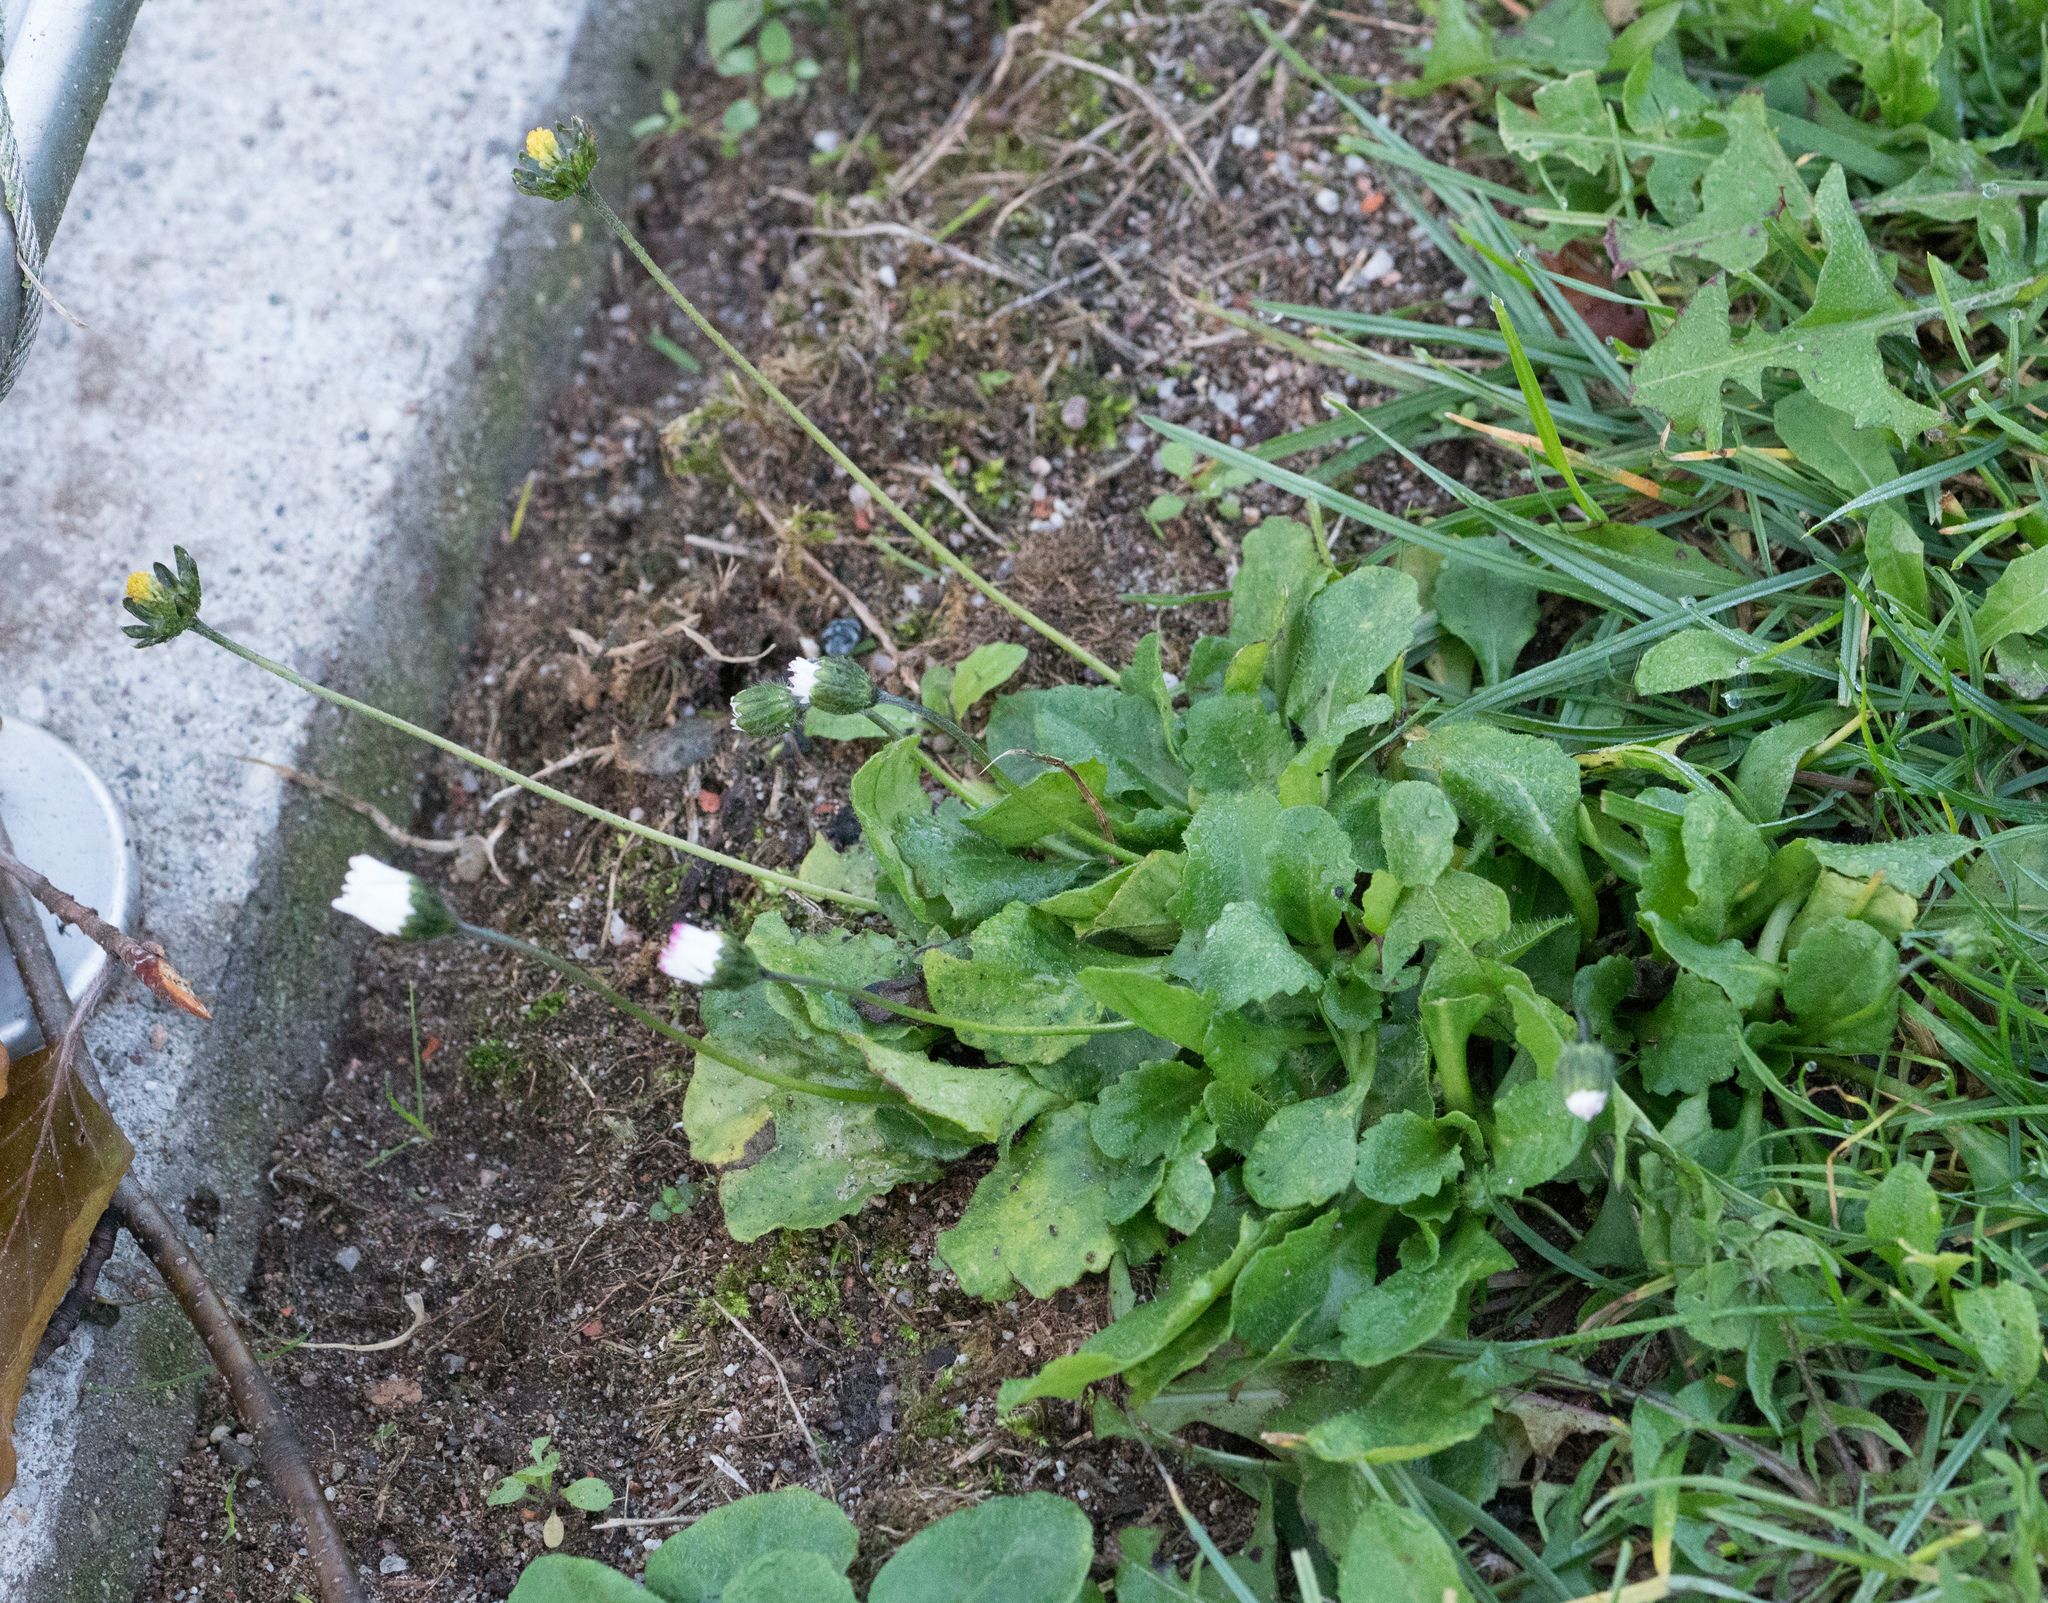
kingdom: Plantae
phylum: Tracheophyta
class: Magnoliopsida
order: Asterales
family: Asteraceae
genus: Bellis
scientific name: Bellis perennis
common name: Lawndaisy
